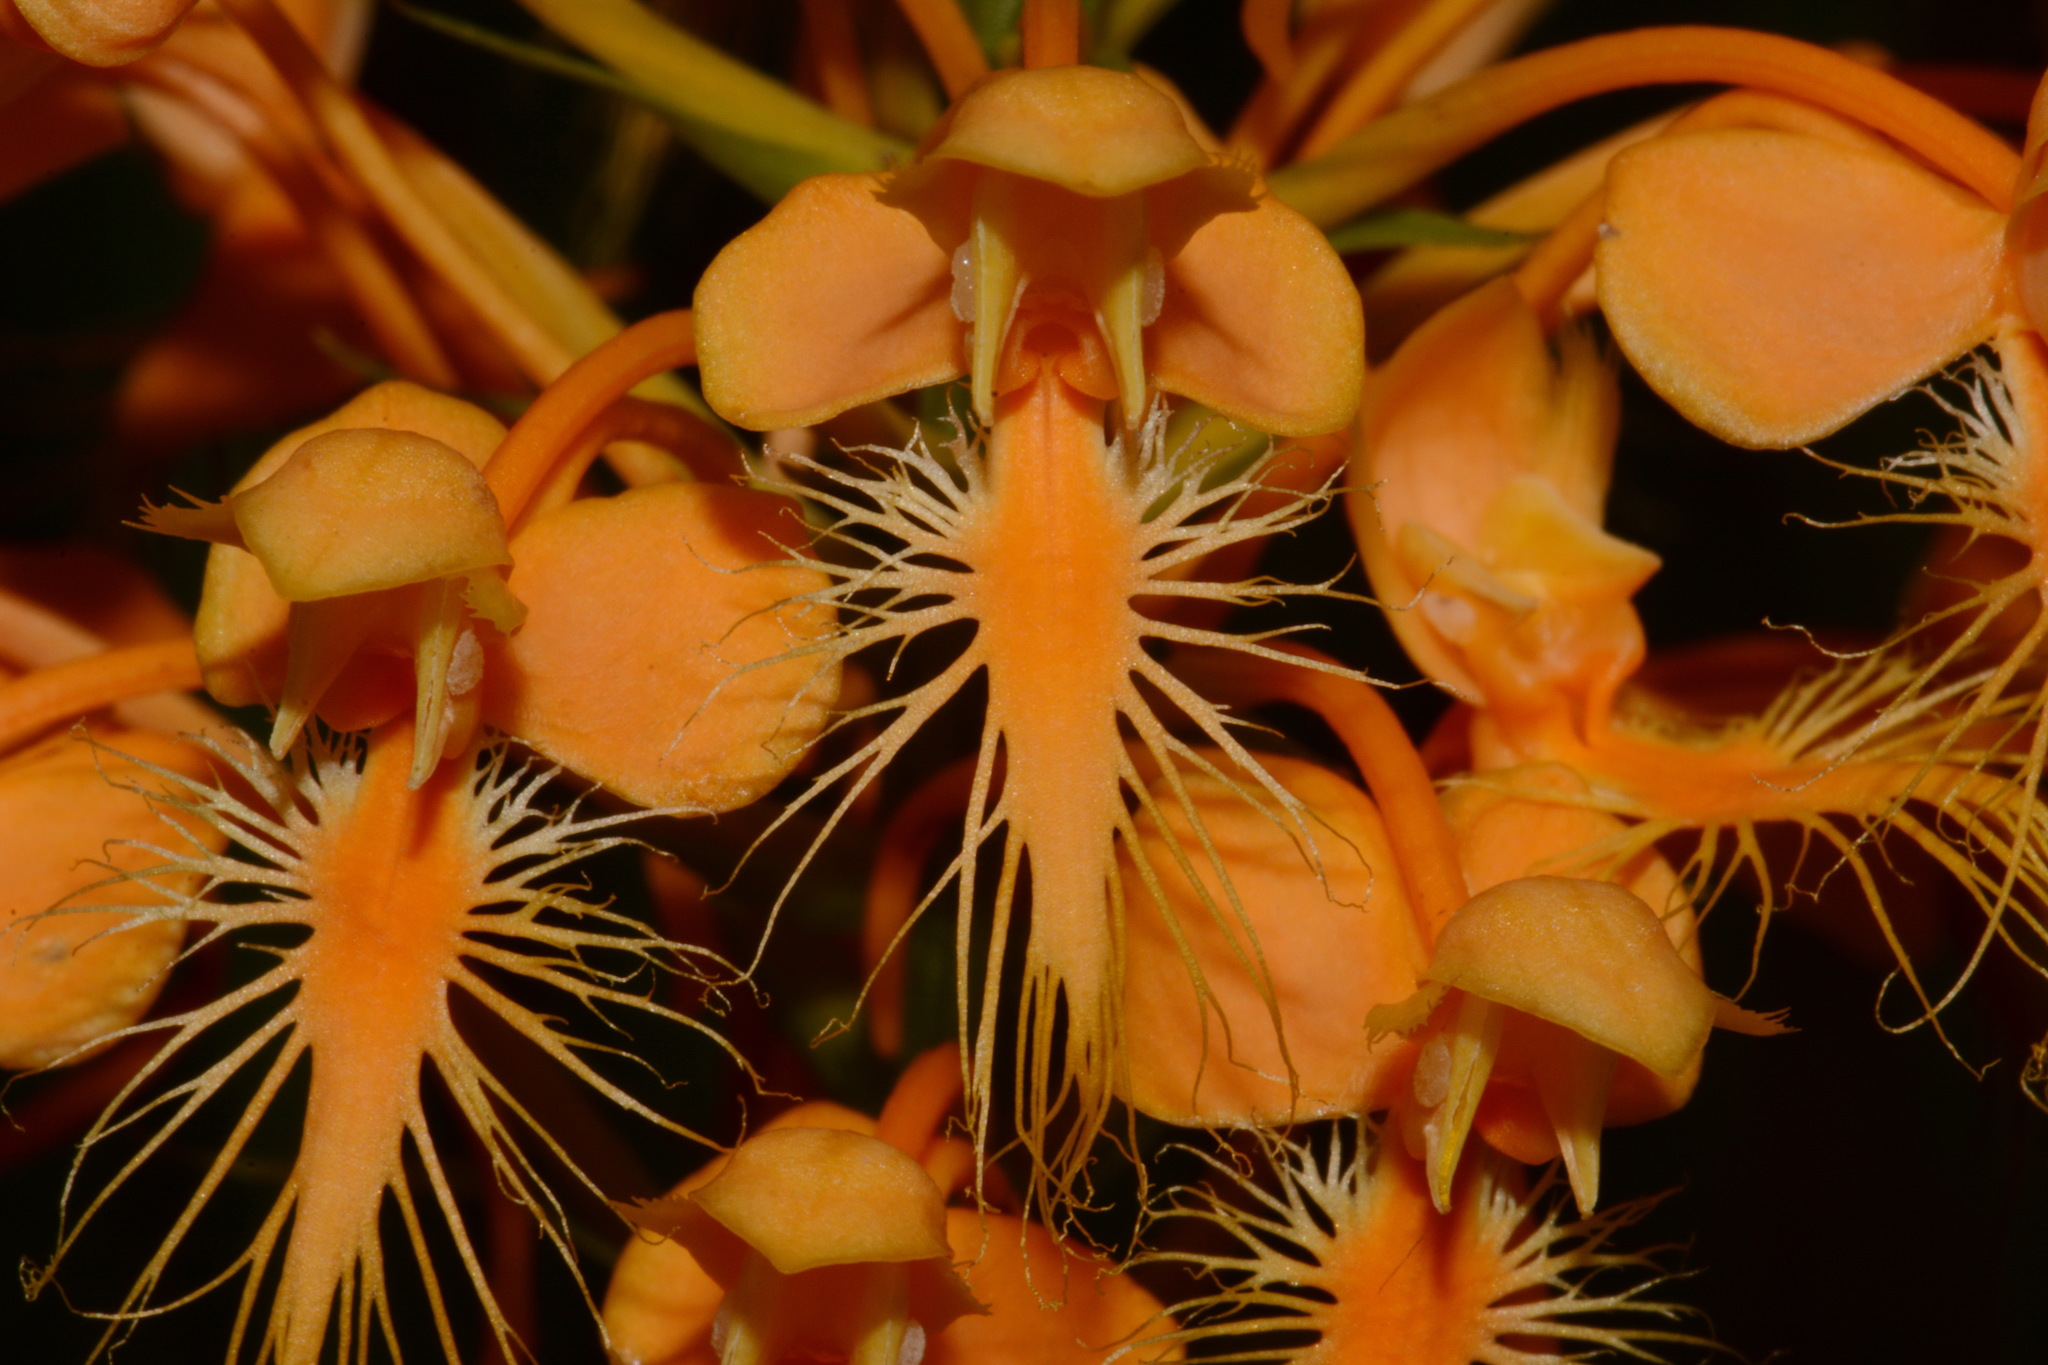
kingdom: Plantae
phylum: Tracheophyta
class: Liliopsida
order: Asparagales
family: Orchidaceae
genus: Platanthera
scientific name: Platanthera ciliaris
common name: Yellow fringed orchid
